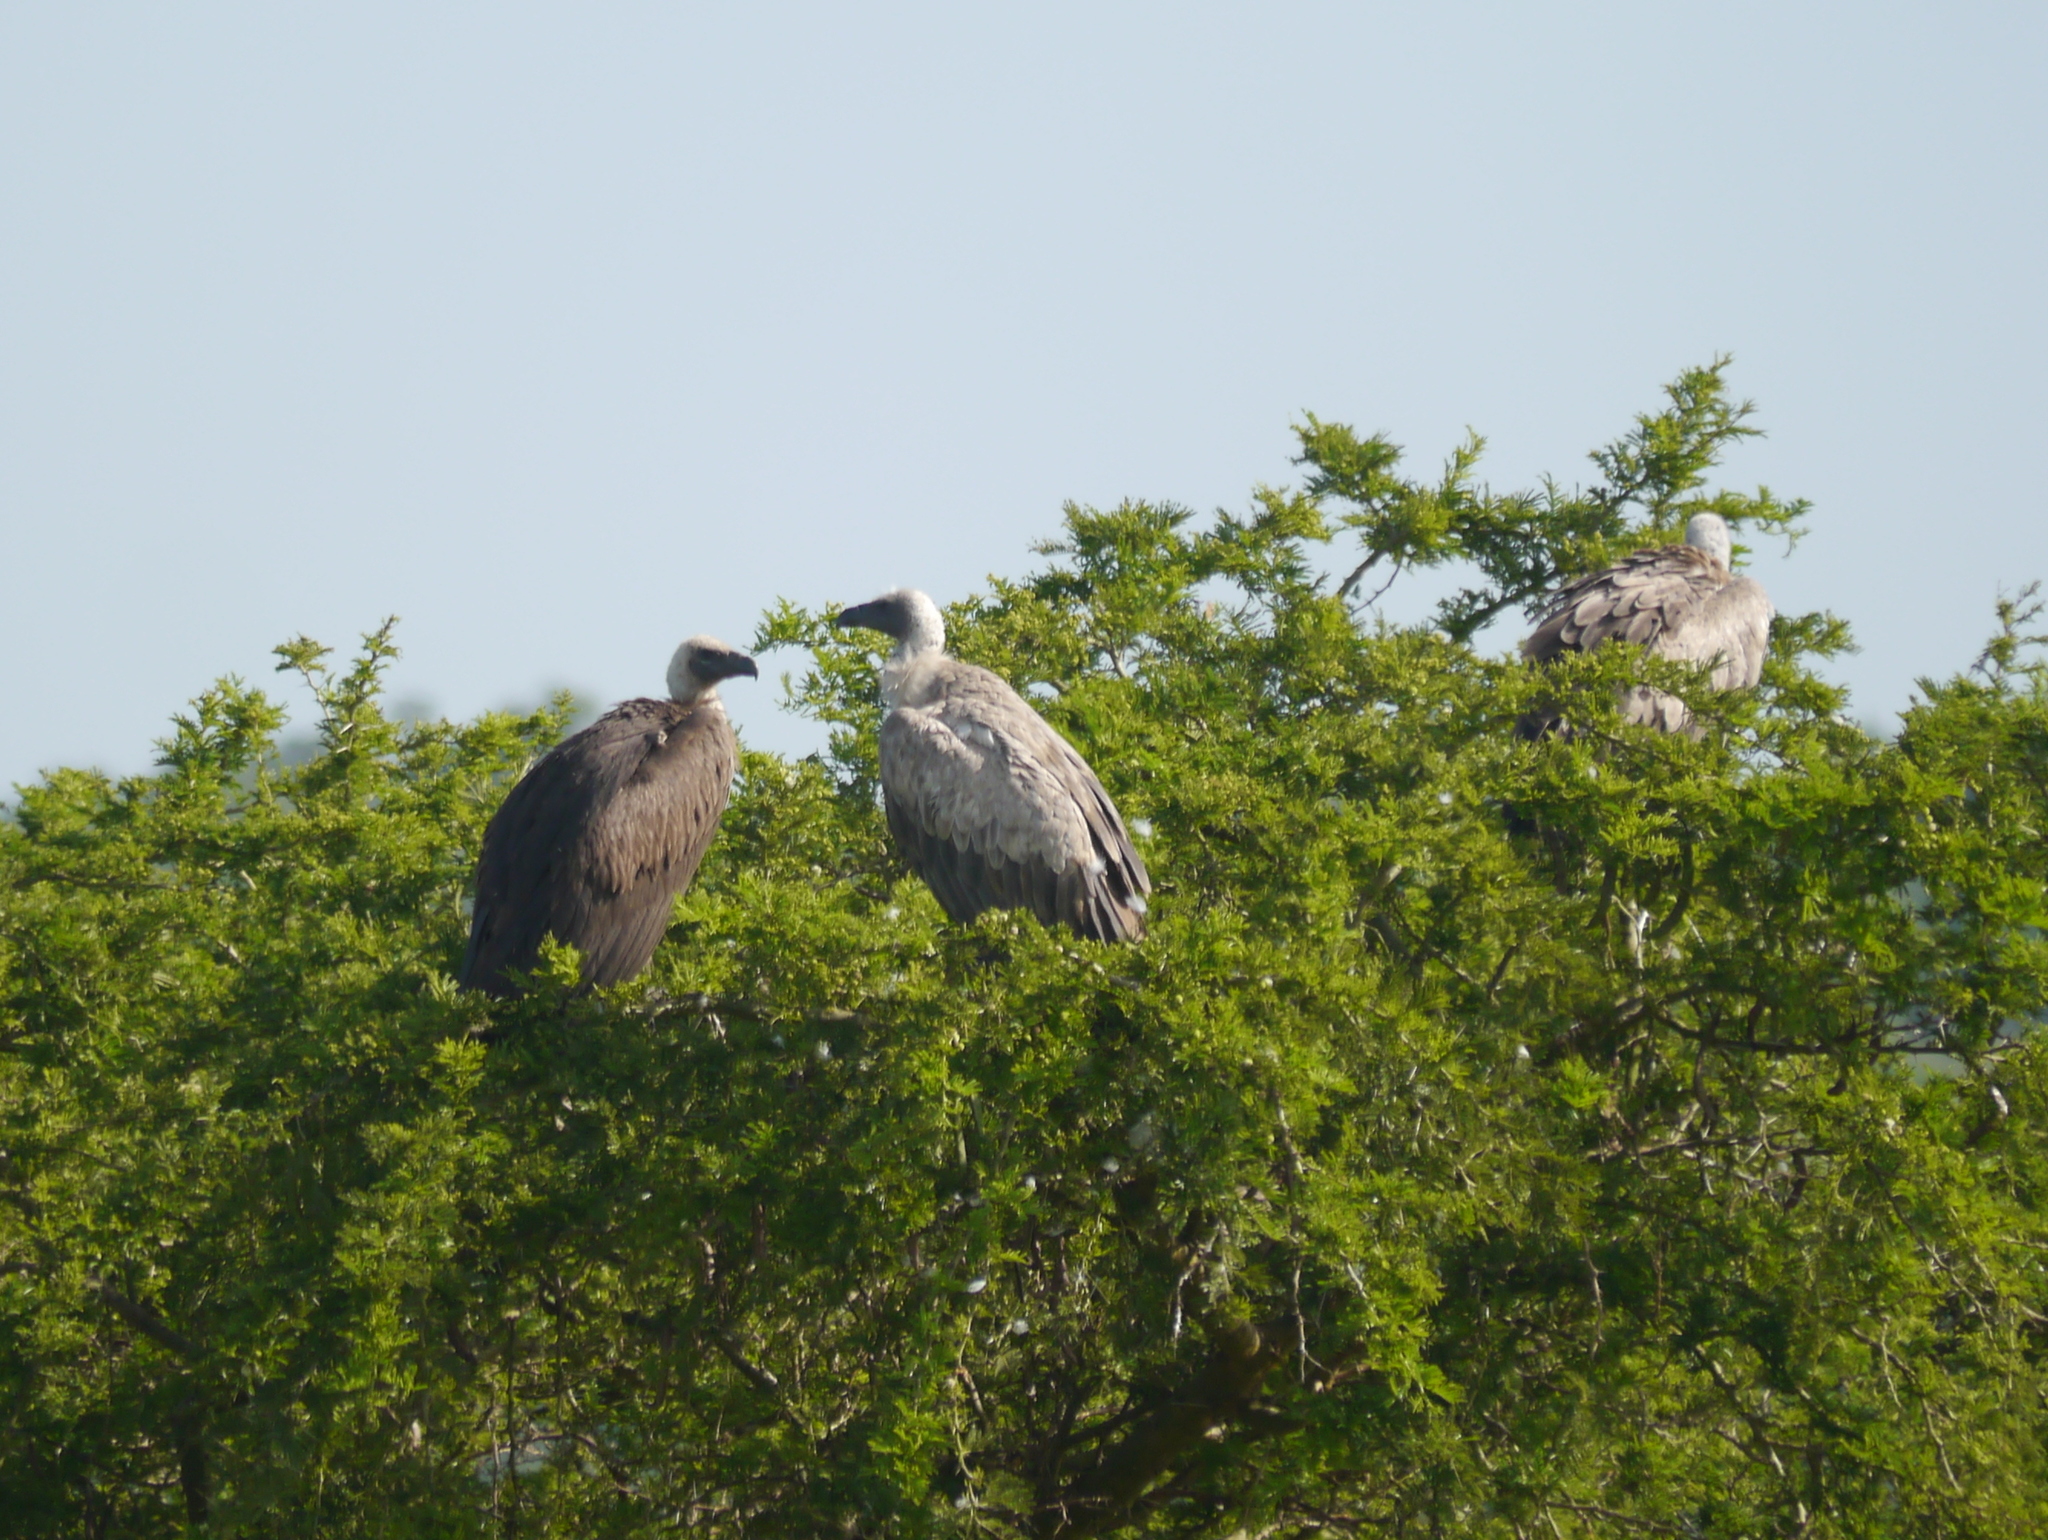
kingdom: Animalia
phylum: Chordata
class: Aves
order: Accipitriformes
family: Accipitridae
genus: Gyps
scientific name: Gyps africanus
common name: White-backed vulture
